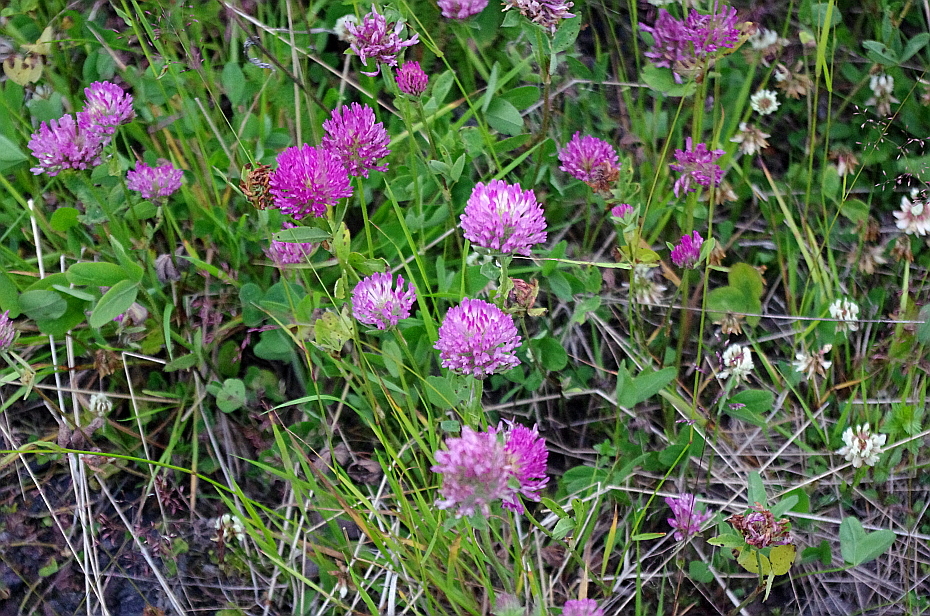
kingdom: Plantae
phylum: Tracheophyta
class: Magnoliopsida
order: Fabales
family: Fabaceae
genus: Trifolium
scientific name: Trifolium pratense
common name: Red clover
